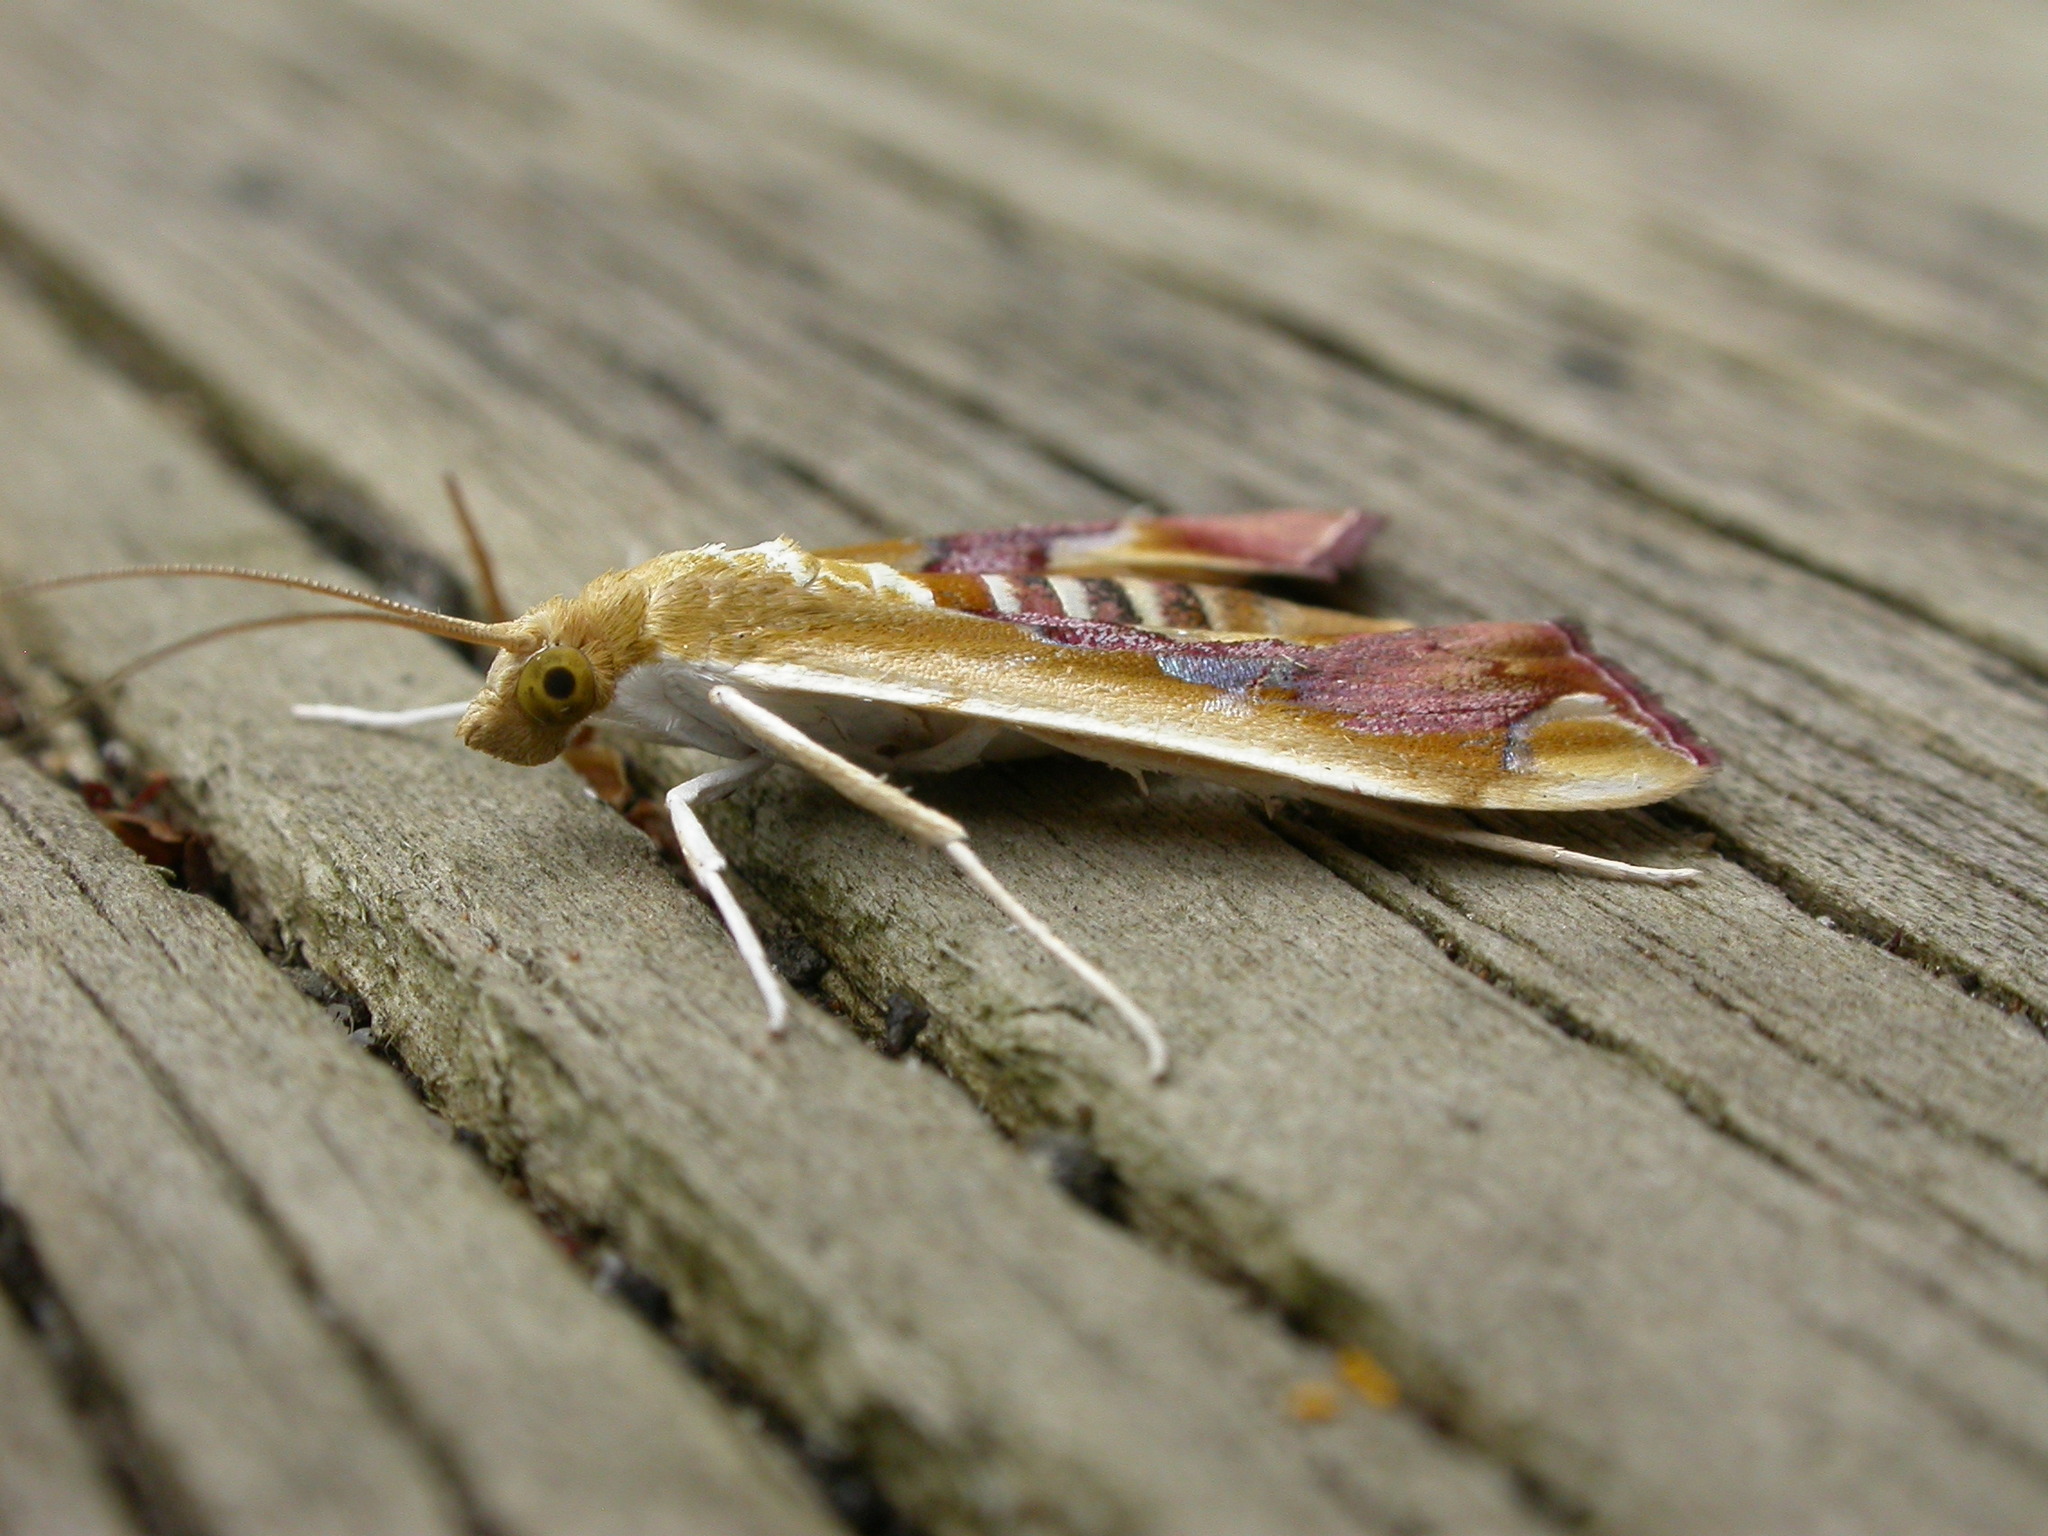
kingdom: Animalia
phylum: Arthropoda
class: Insecta
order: Lepidoptera
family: Crambidae
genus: Agathodes
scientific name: Agathodes ostentalis
